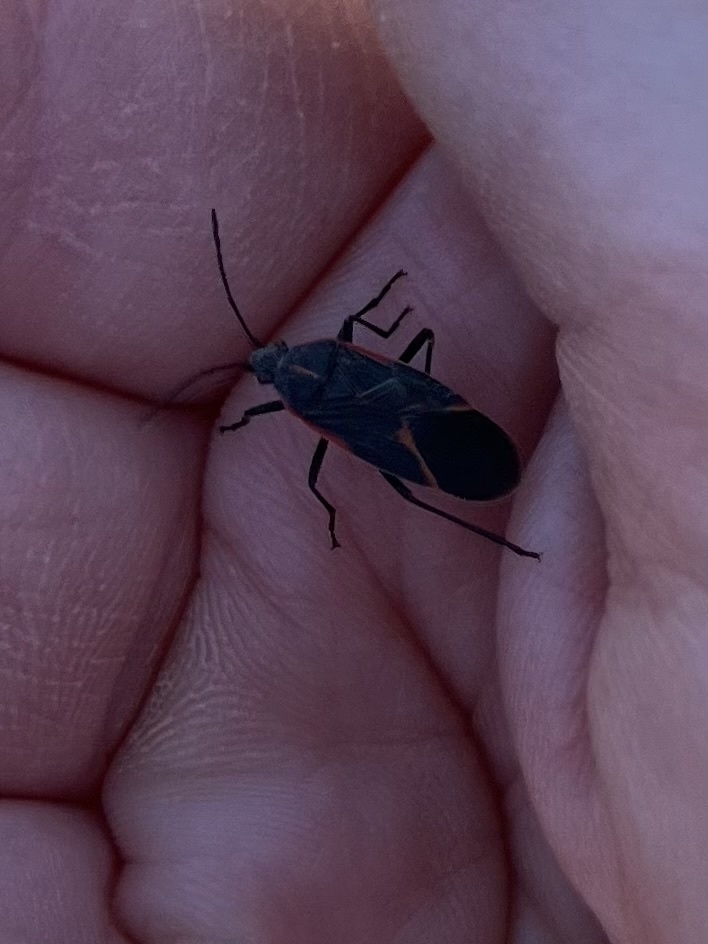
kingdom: Animalia
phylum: Arthropoda
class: Insecta
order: Hemiptera
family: Rhopalidae
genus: Boisea
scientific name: Boisea trivittata
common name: Boxelder bug
